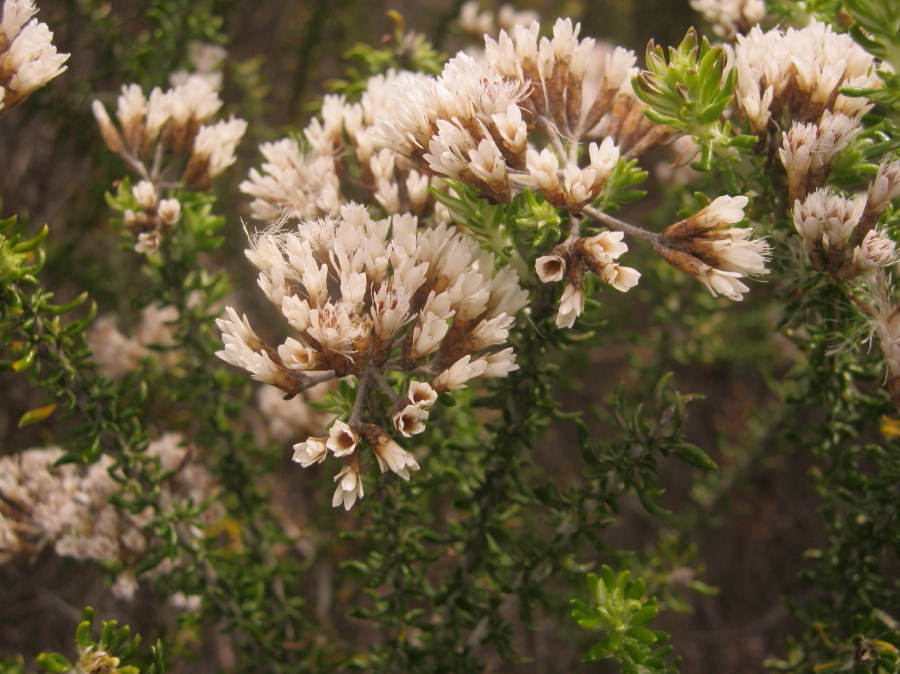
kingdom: Plantae
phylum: Tracheophyta
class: Magnoliopsida
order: Asterales
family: Asteraceae
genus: Metalasia
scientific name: Metalasia muricata
